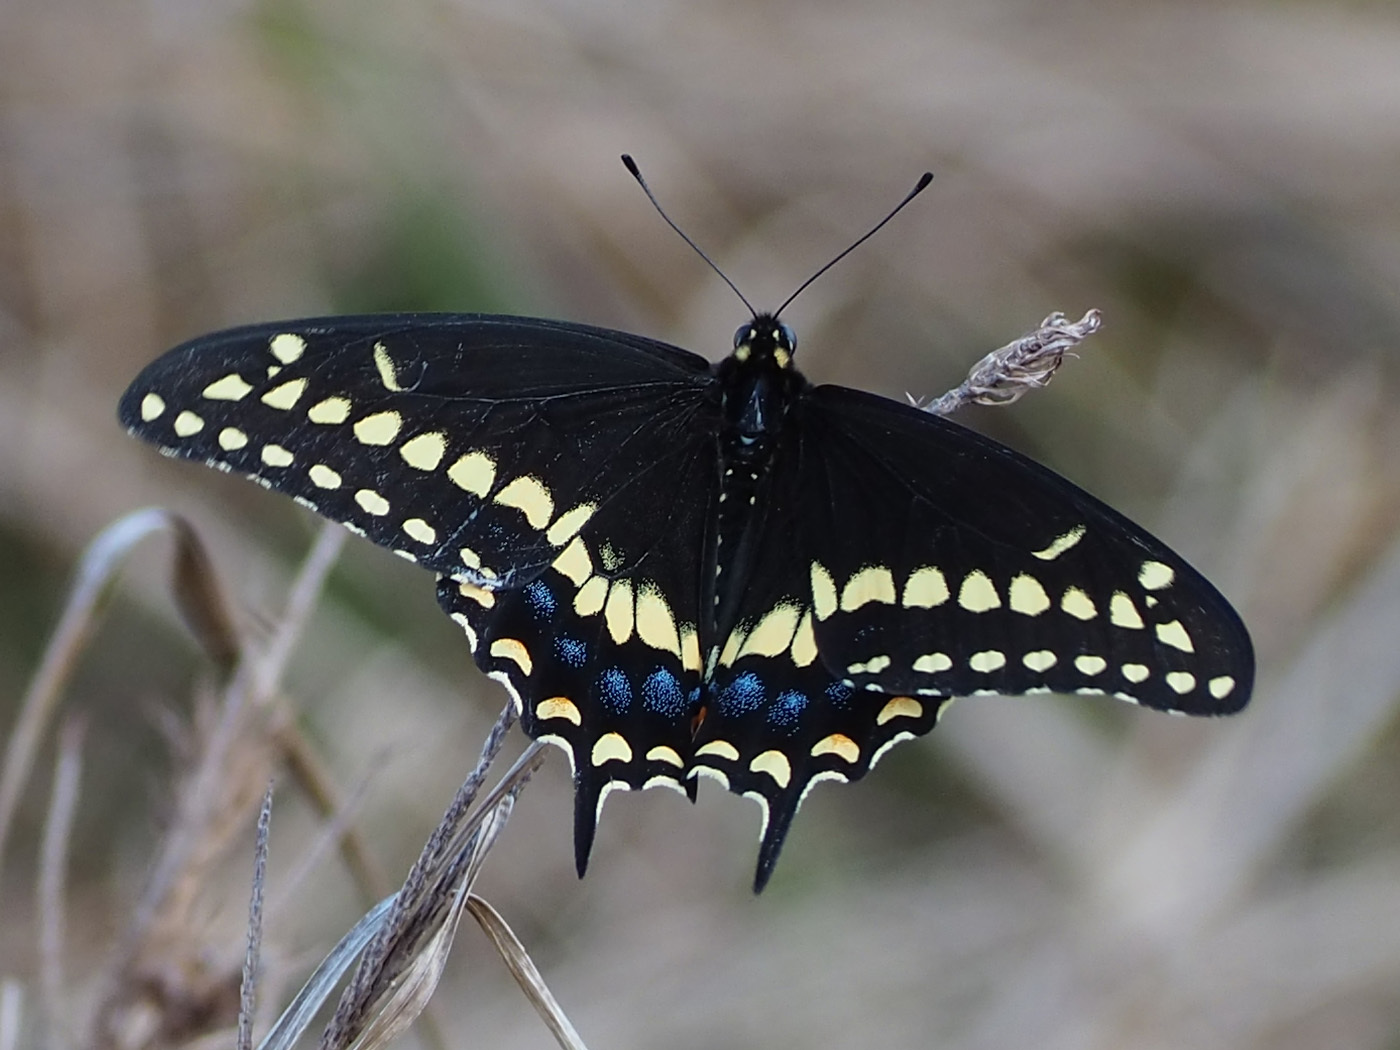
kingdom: Animalia
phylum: Arthropoda
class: Insecta
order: Lepidoptera
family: Papilionidae
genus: Papilio
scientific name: Papilio polyxenes
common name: Black swallowtail
